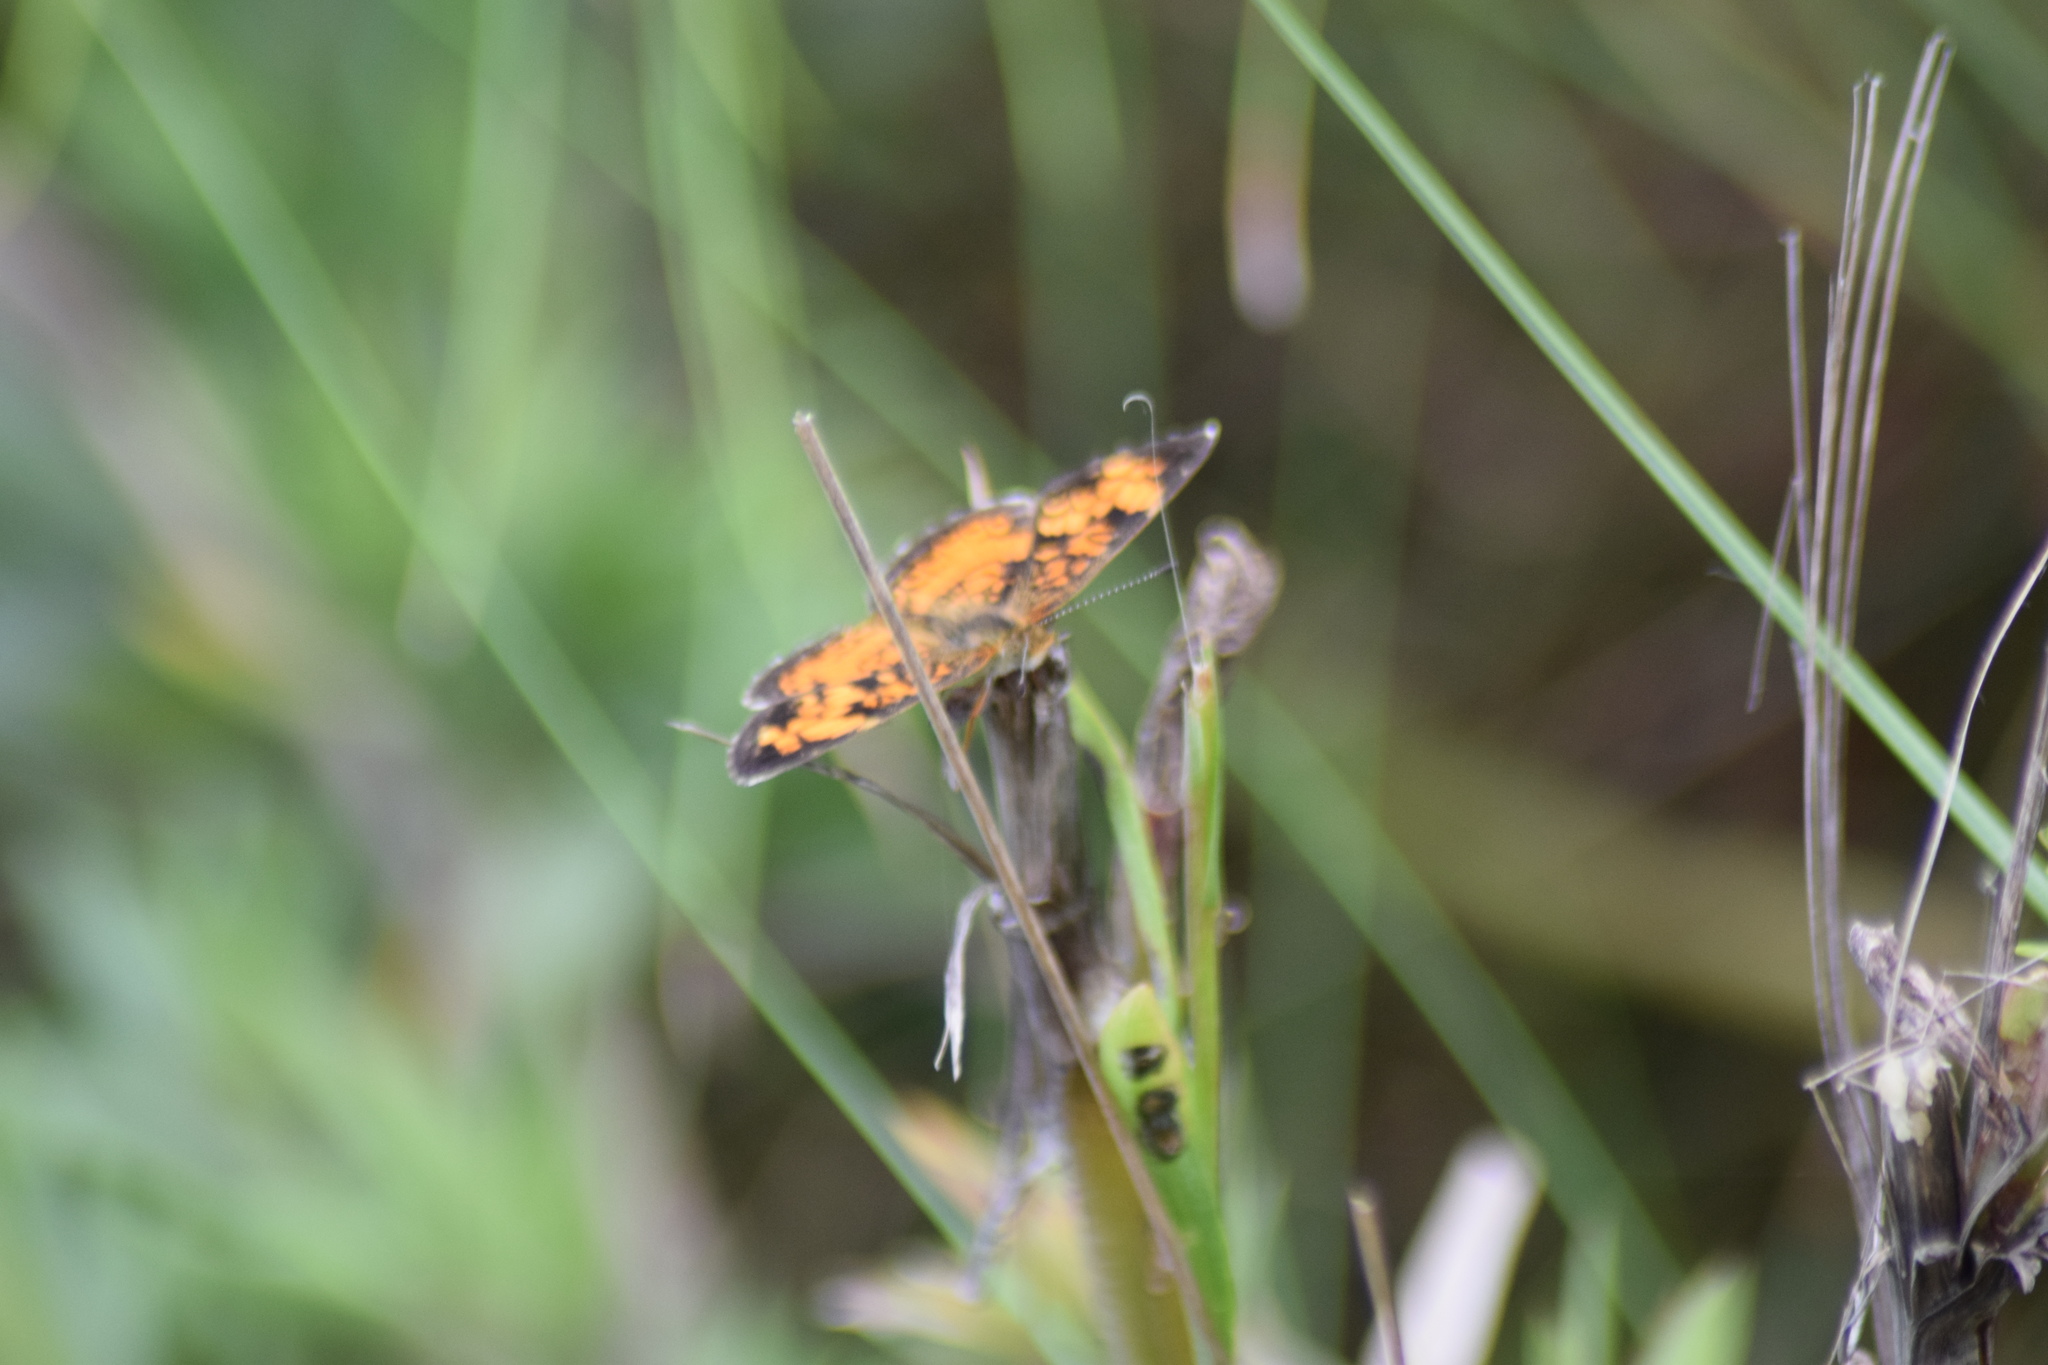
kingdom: Animalia
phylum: Arthropoda
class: Insecta
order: Lepidoptera
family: Nymphalidae
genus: Phyciodes
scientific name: Phyciodes tharos
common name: Pearl crescent
